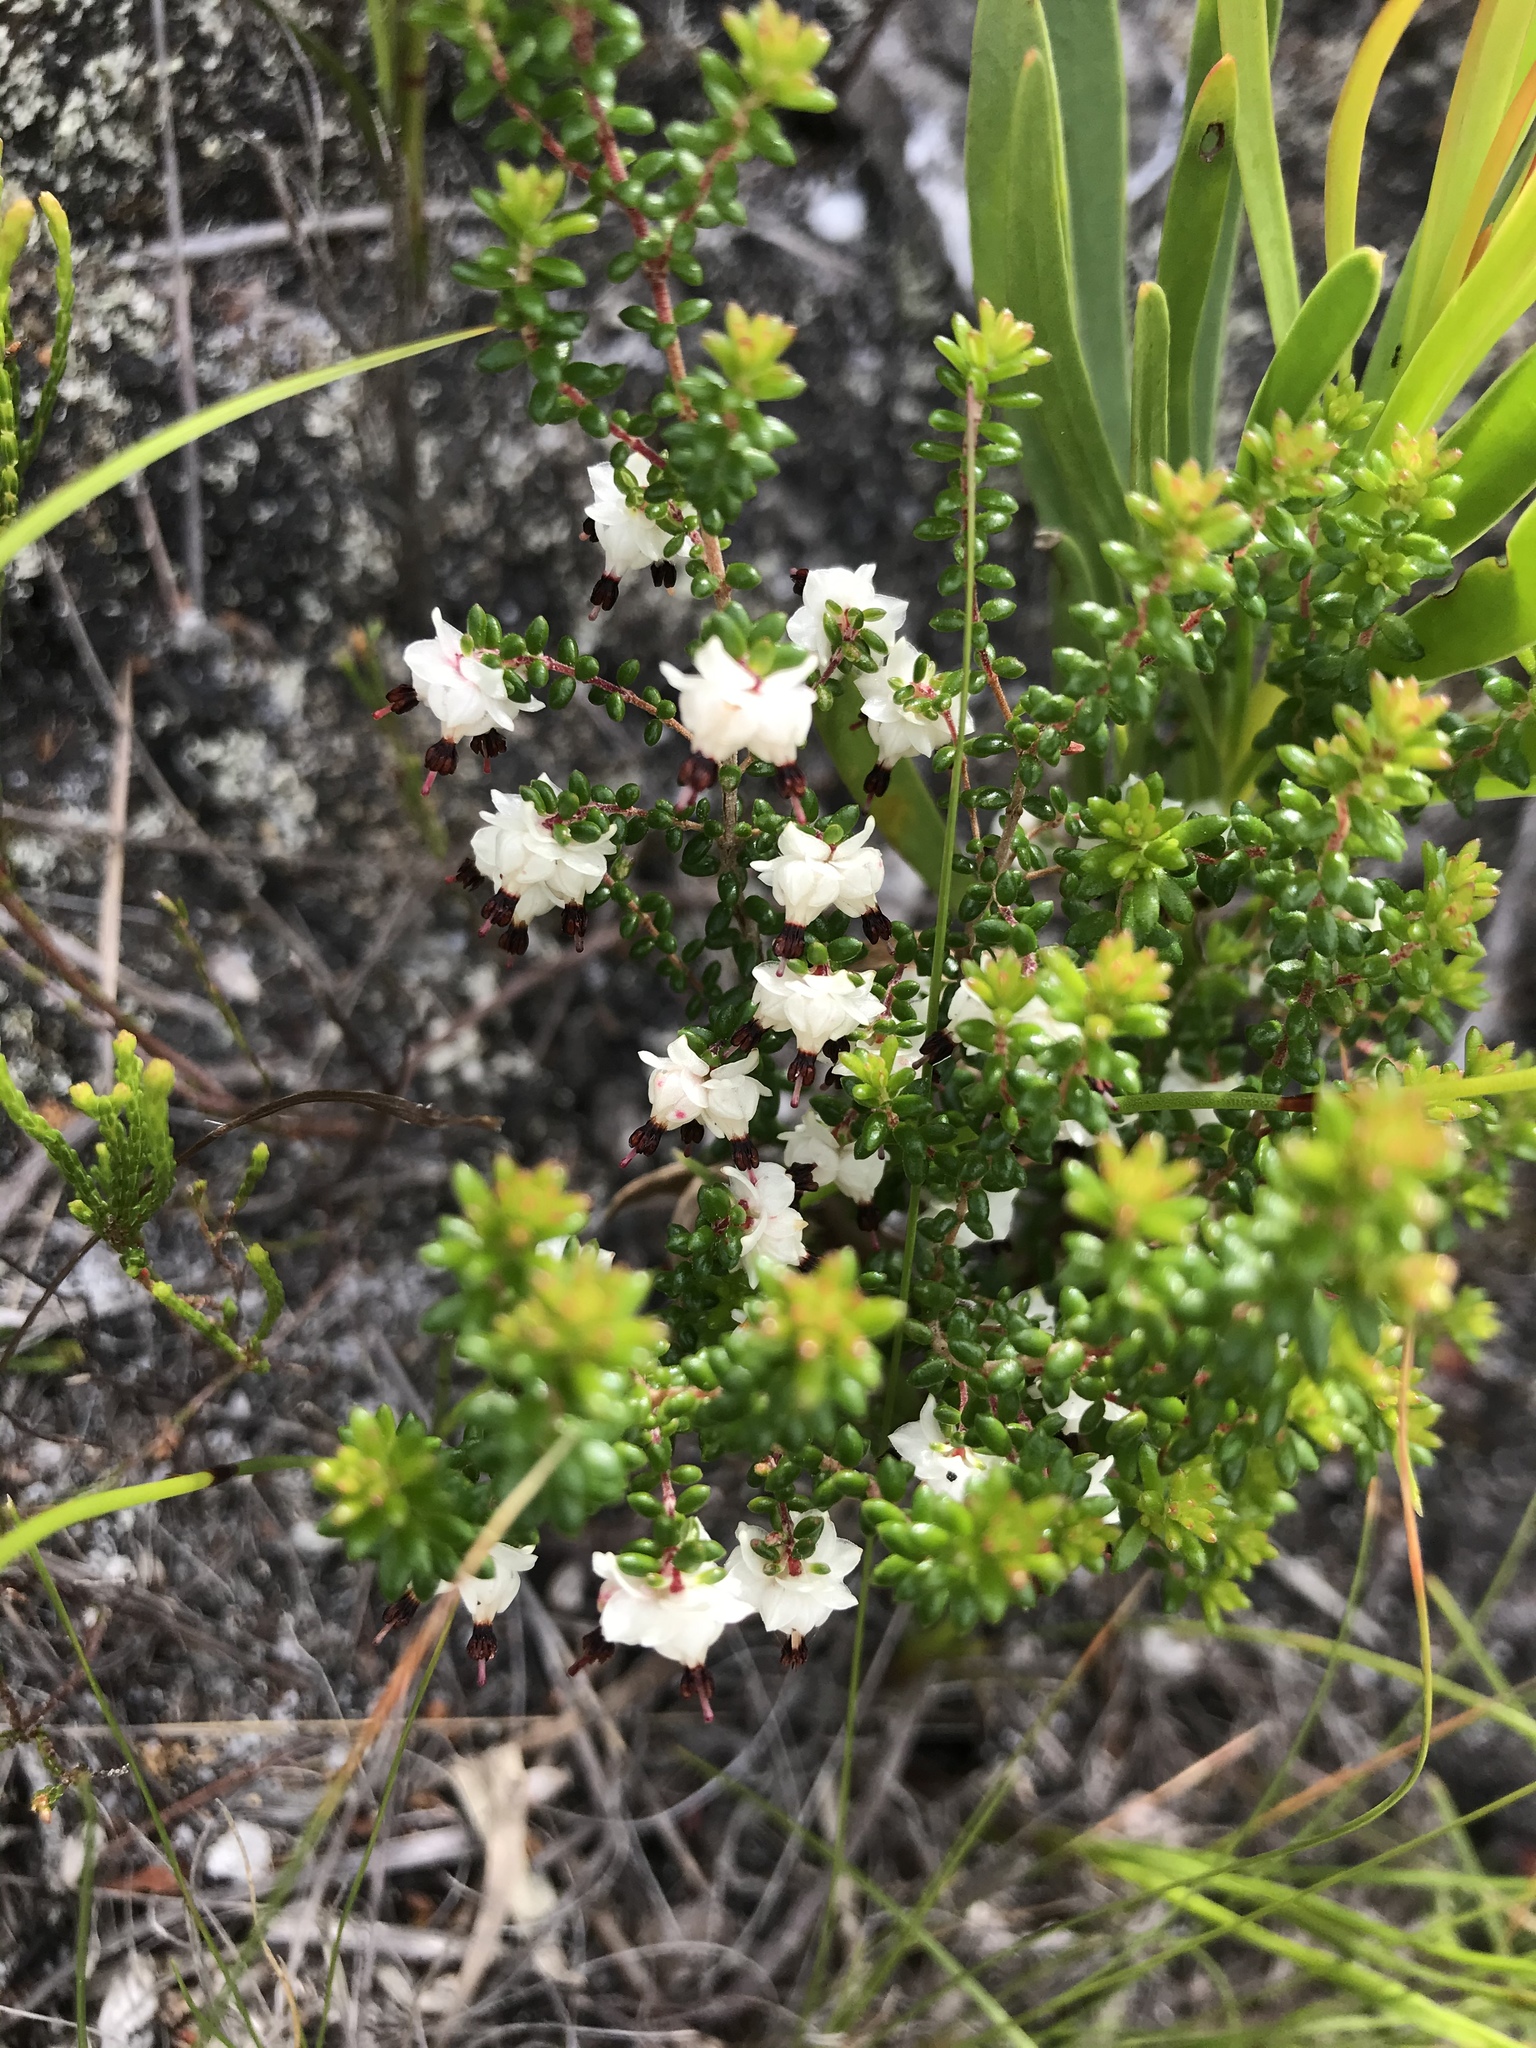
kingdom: Plantae
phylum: Tracheophyta
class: Magnoliopsida
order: Ericales
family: Ericaceae
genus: Erica
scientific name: Erica azaleifolia
